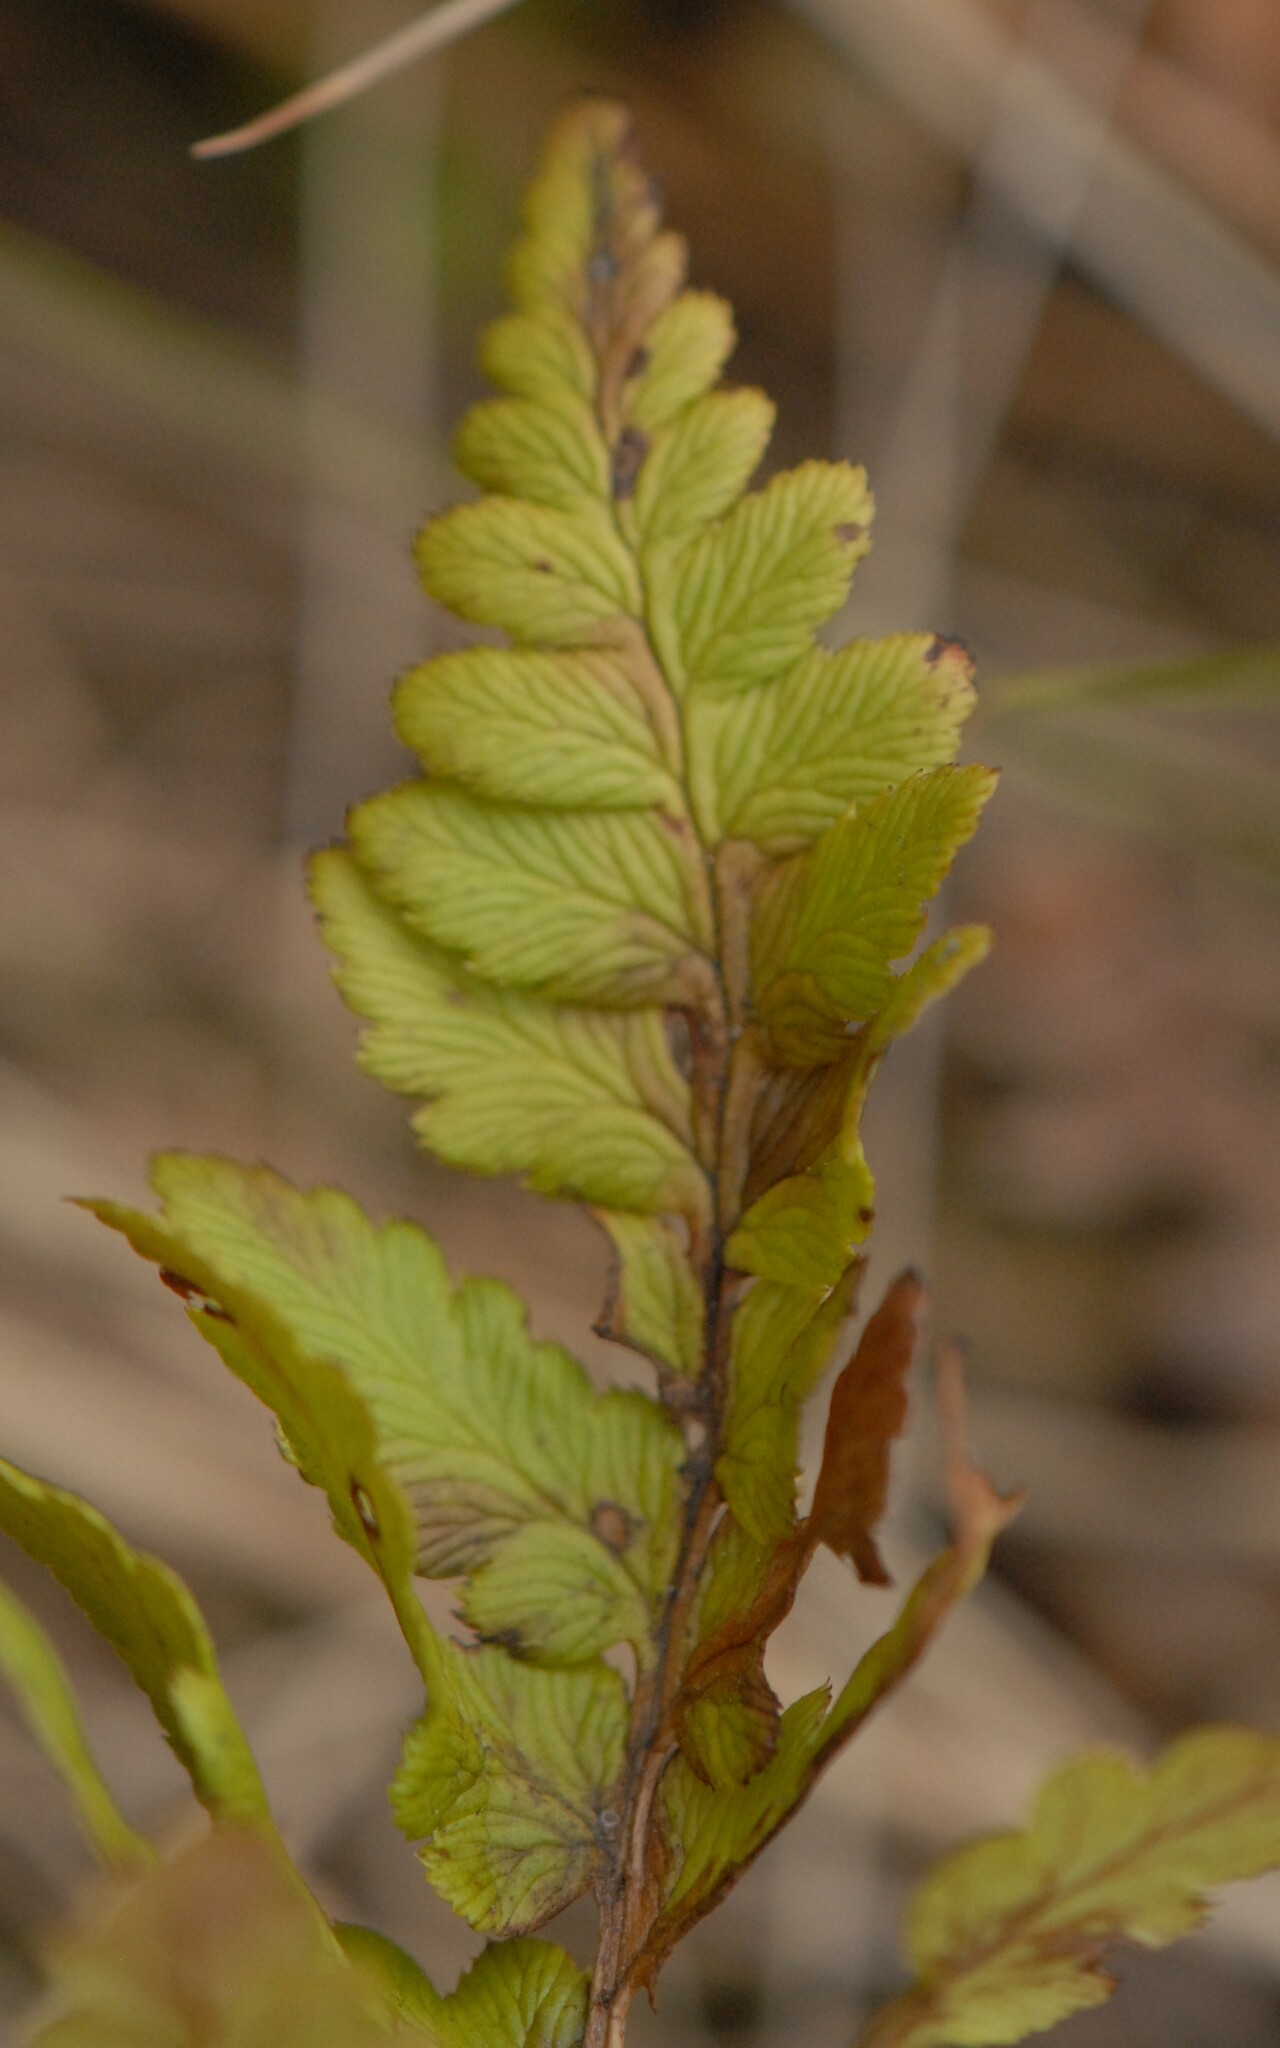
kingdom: Plantae
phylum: Tracheophyta
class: Polypodiopsida
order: Polypodiales
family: Dryopteridaceae
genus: Dryopteris
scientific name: Dryopteris cristata
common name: Crested wood fern
